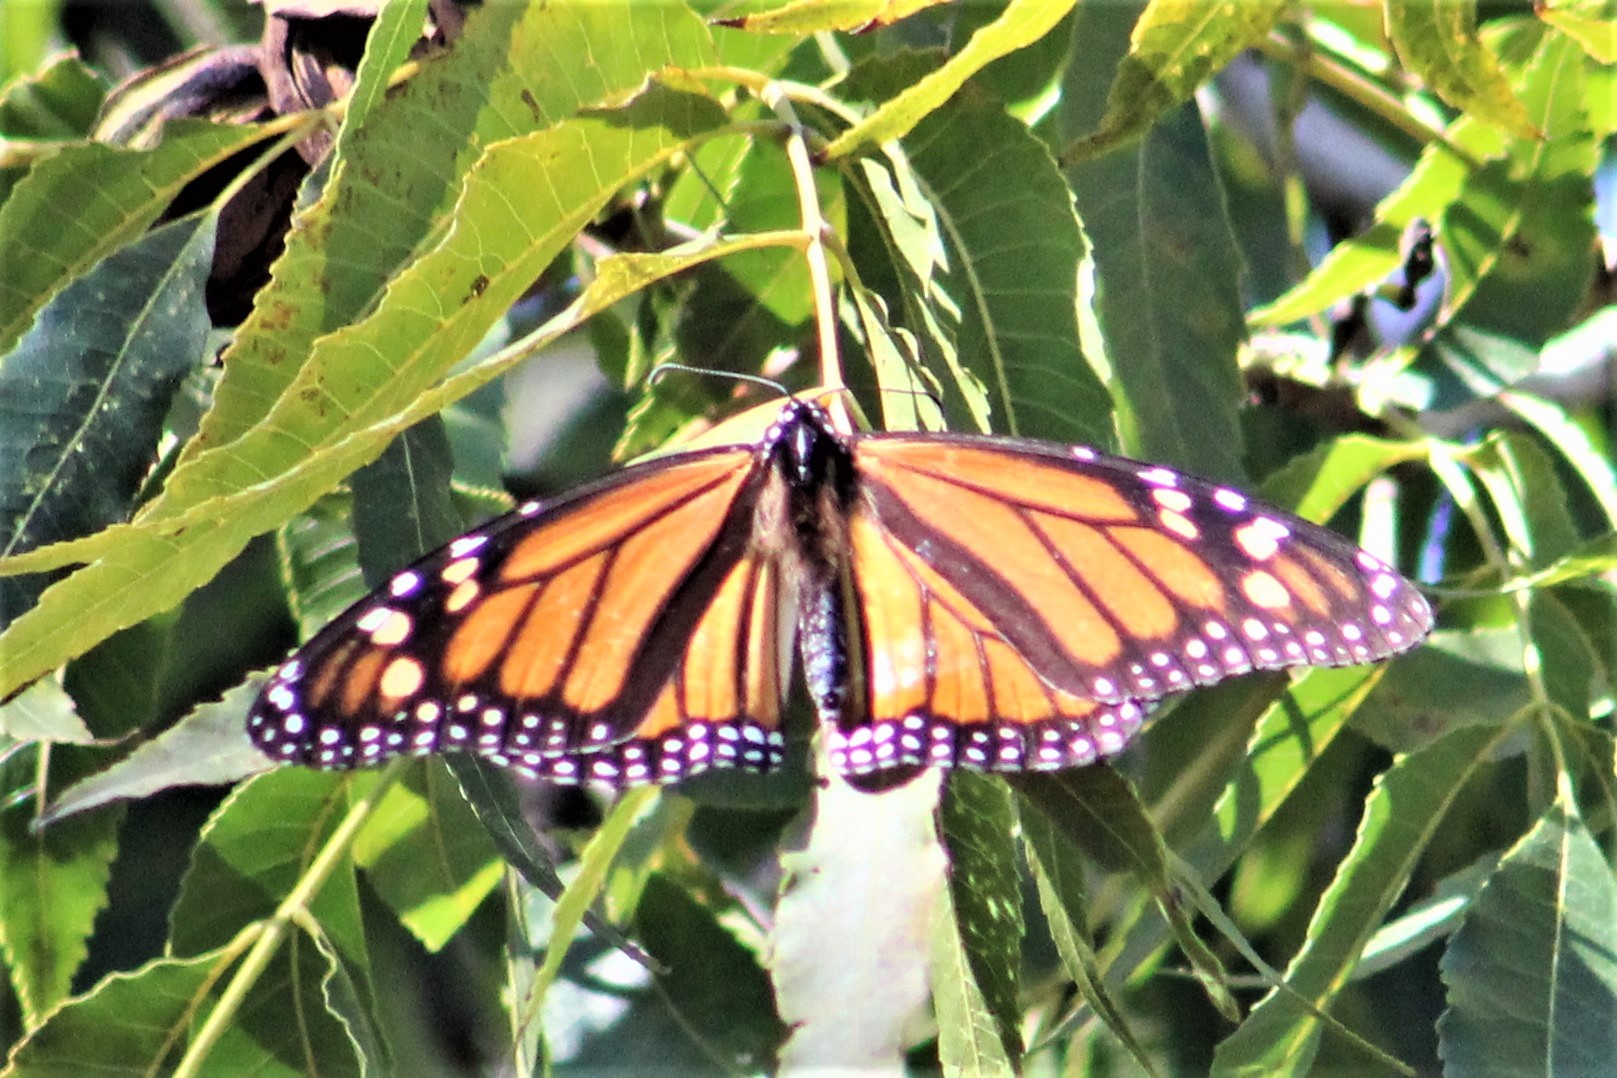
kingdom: Animalia
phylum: Arthropoda
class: Insecta
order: Lepidoptera
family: Nymphalidae
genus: Danaus
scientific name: Danaus plexippus
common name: Monarch
